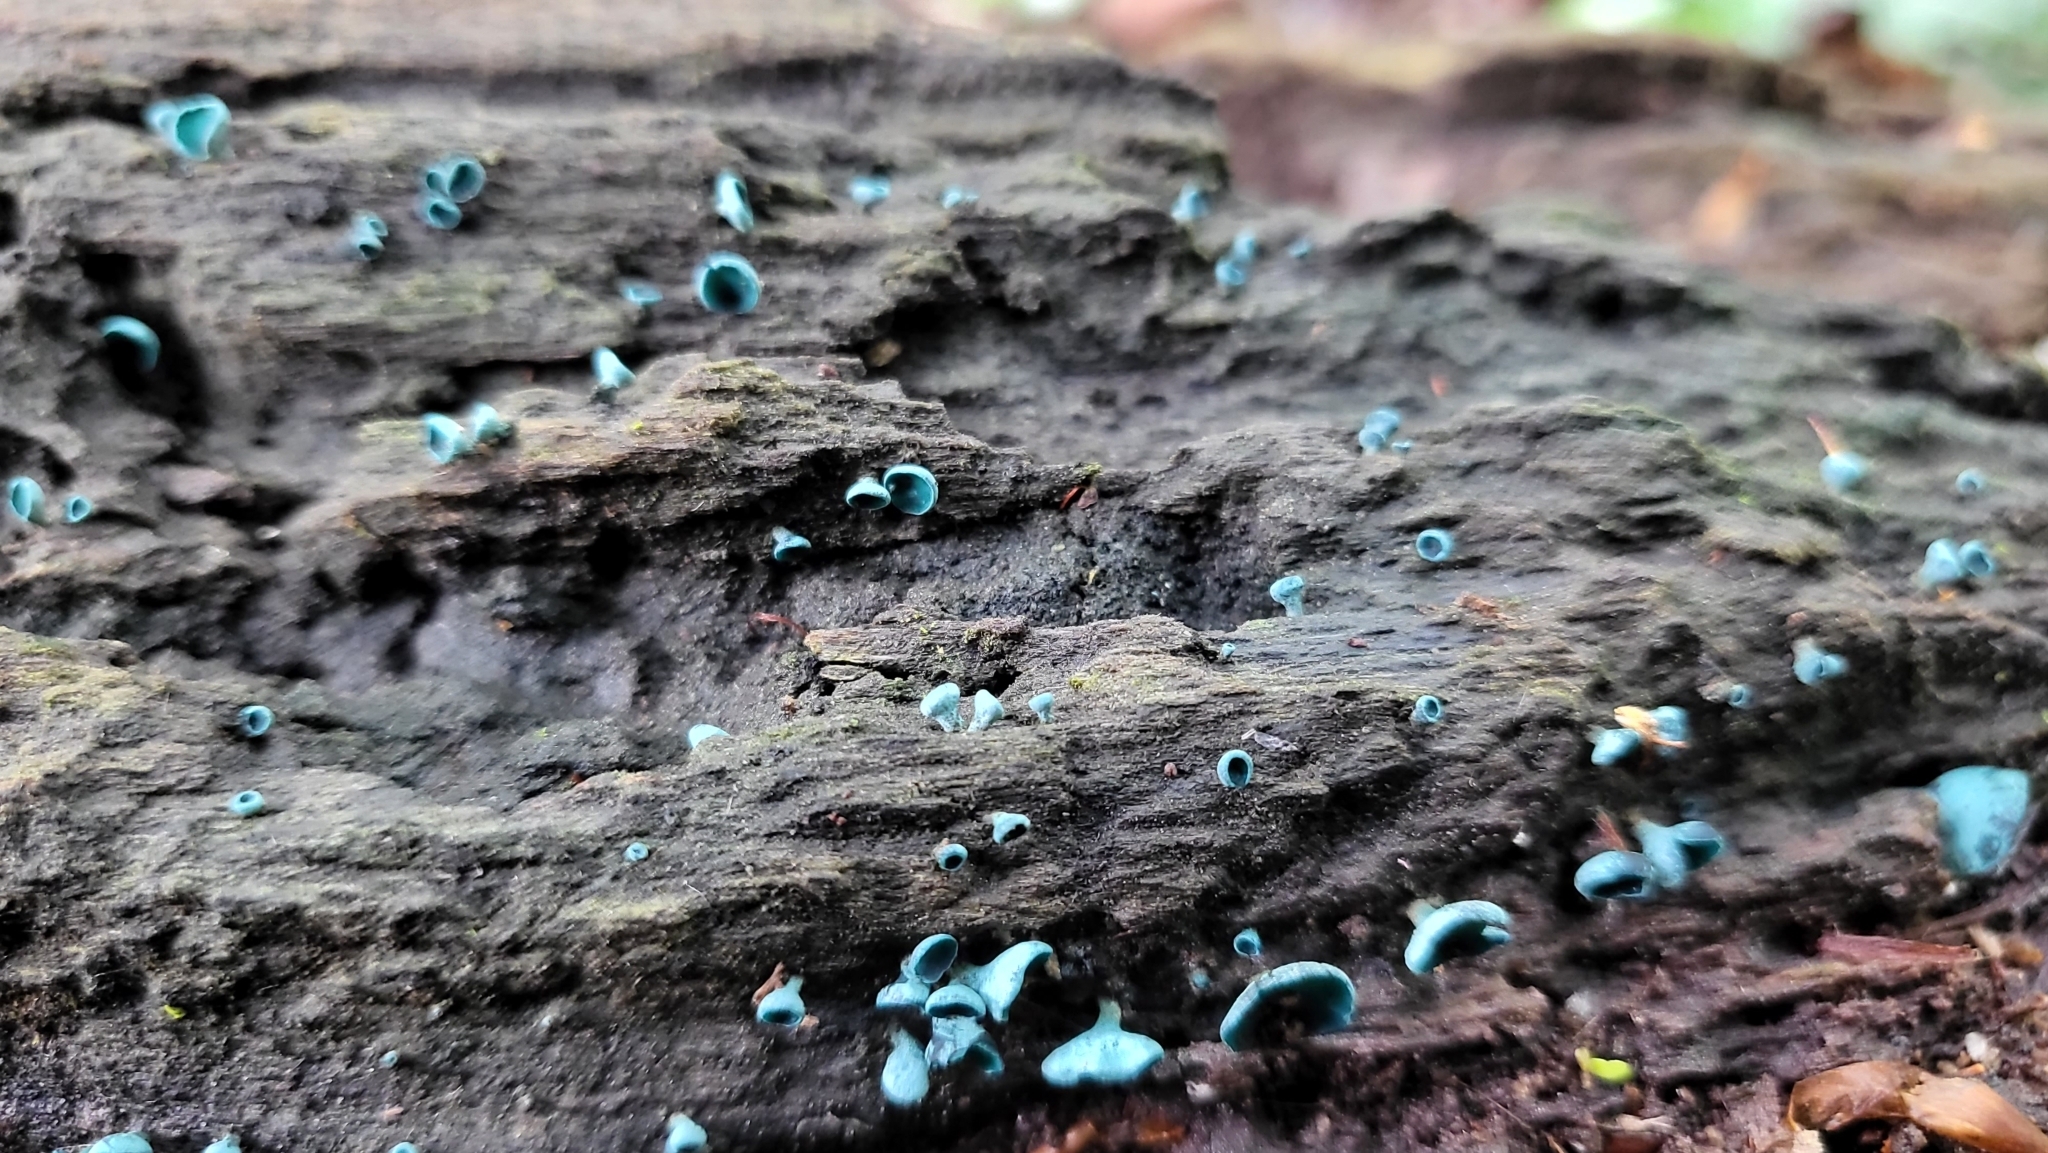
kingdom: Fungi
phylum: Ascomycota
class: Leotiomycetes
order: Helotiales
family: Chlorociboriaceae
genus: Chlorociboria
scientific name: Chlorociboria
